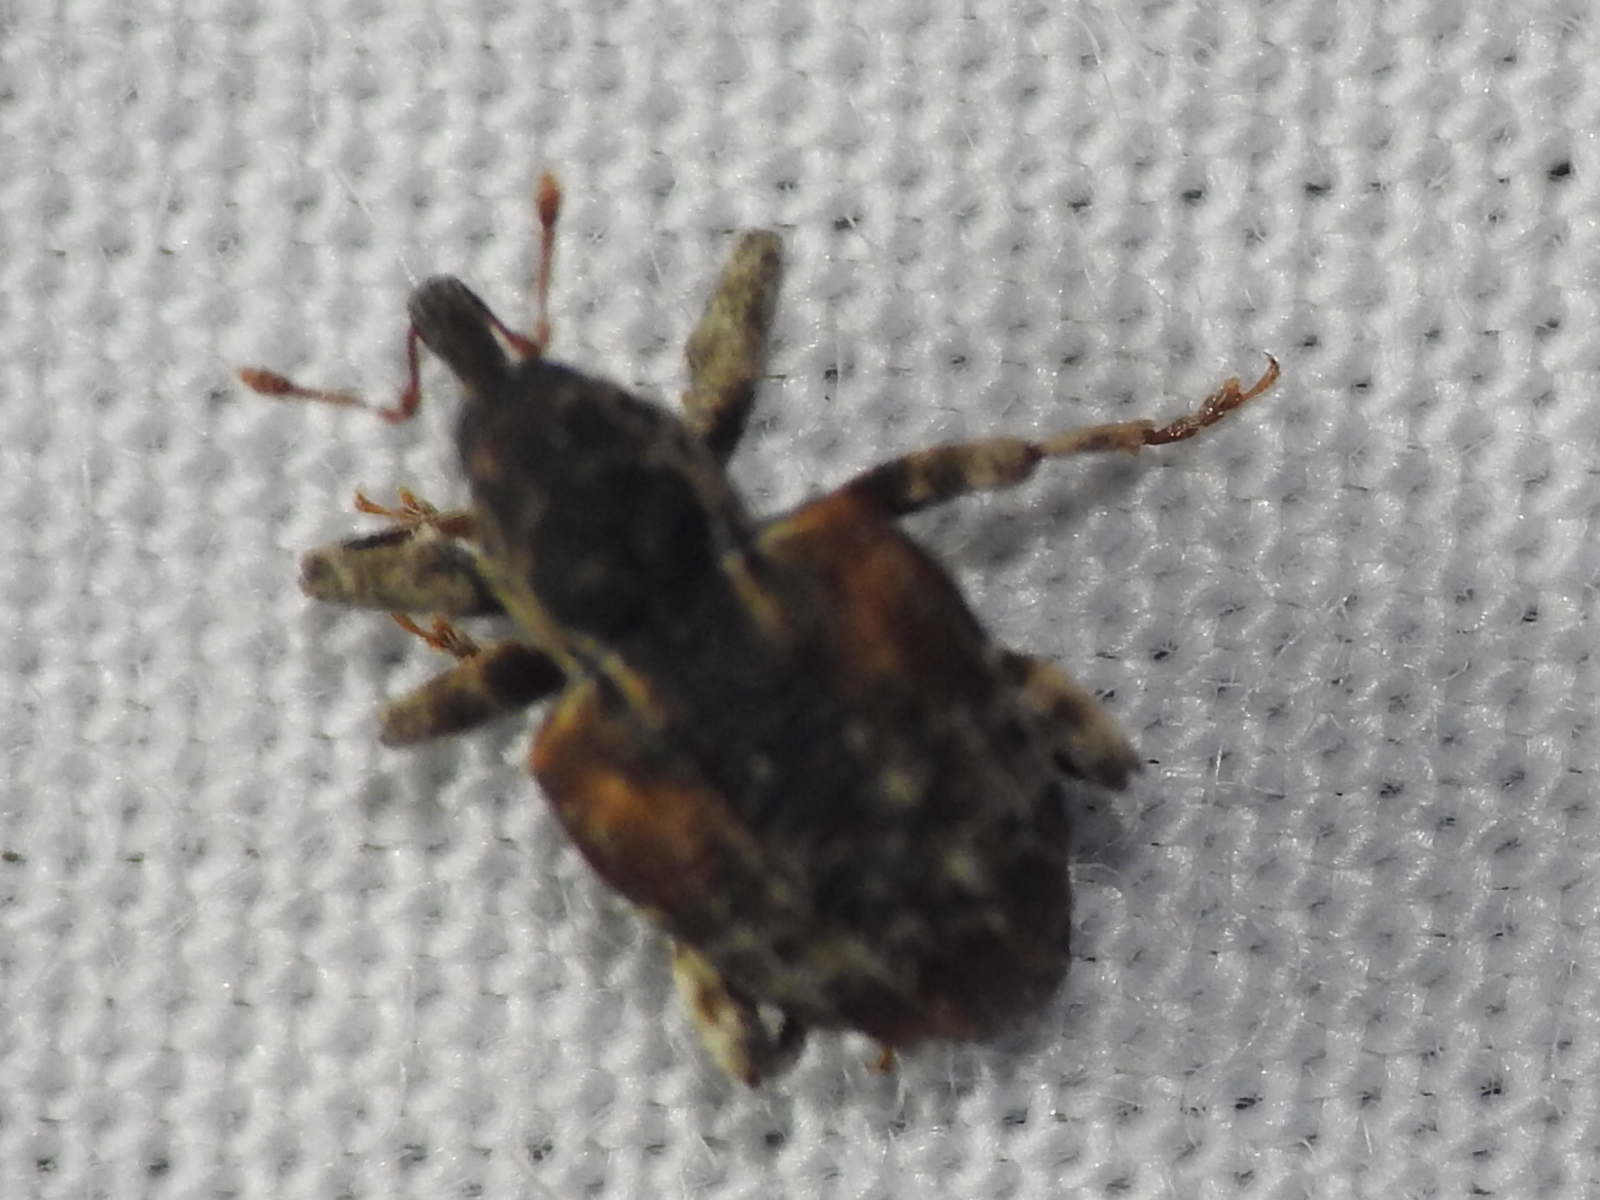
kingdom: Animalia
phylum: Arthropoda
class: Insecta
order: Coleoptera
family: Curculionidae
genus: Conotrachelus
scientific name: Conotrachelus anaglypticus
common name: Cambium curculio
